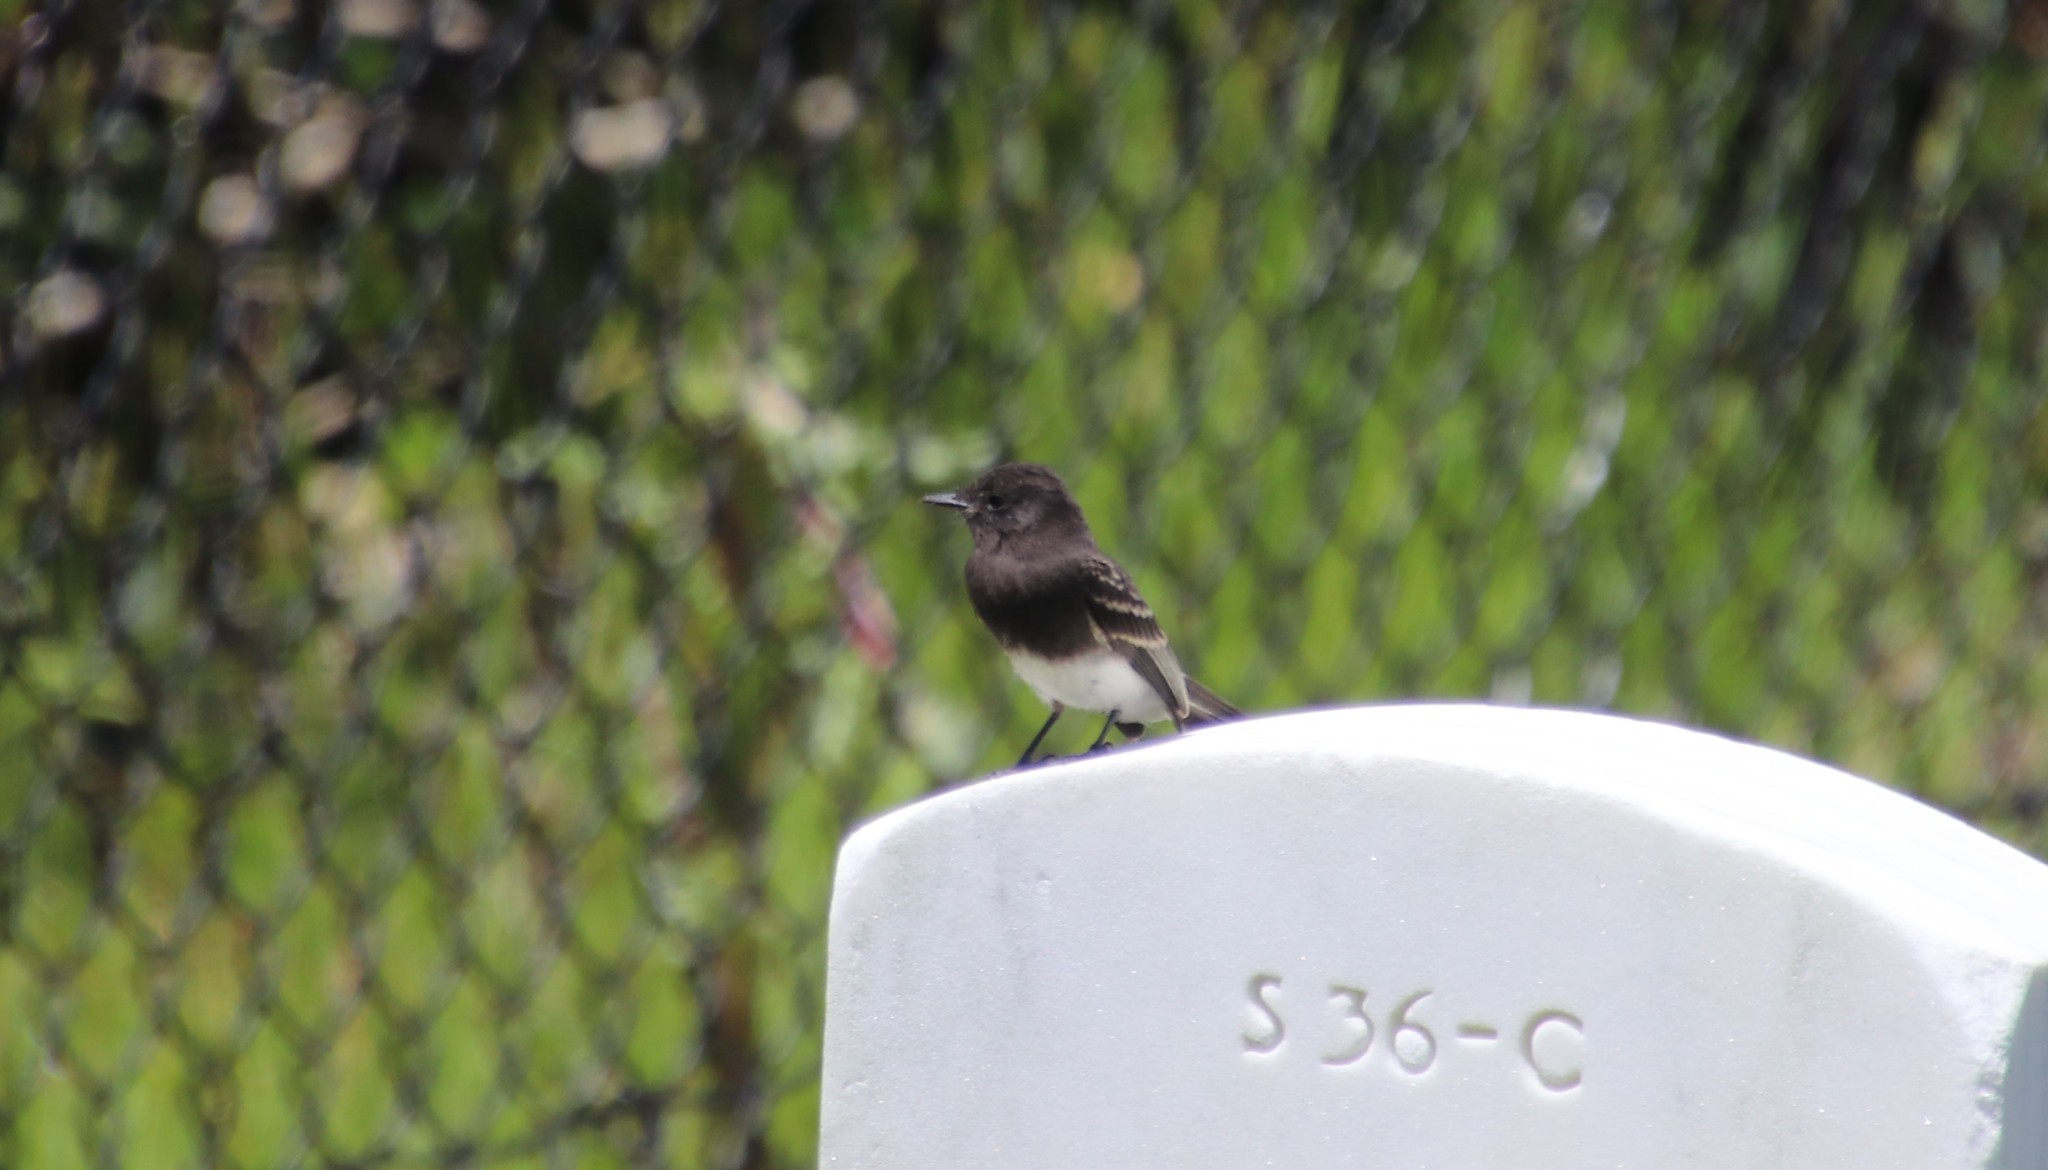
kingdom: Animalia
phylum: Chordata
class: Aves
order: Passeriformes
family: Tyrannidae
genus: Sayornis
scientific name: Sayornis nigricans
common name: Black phoebe
